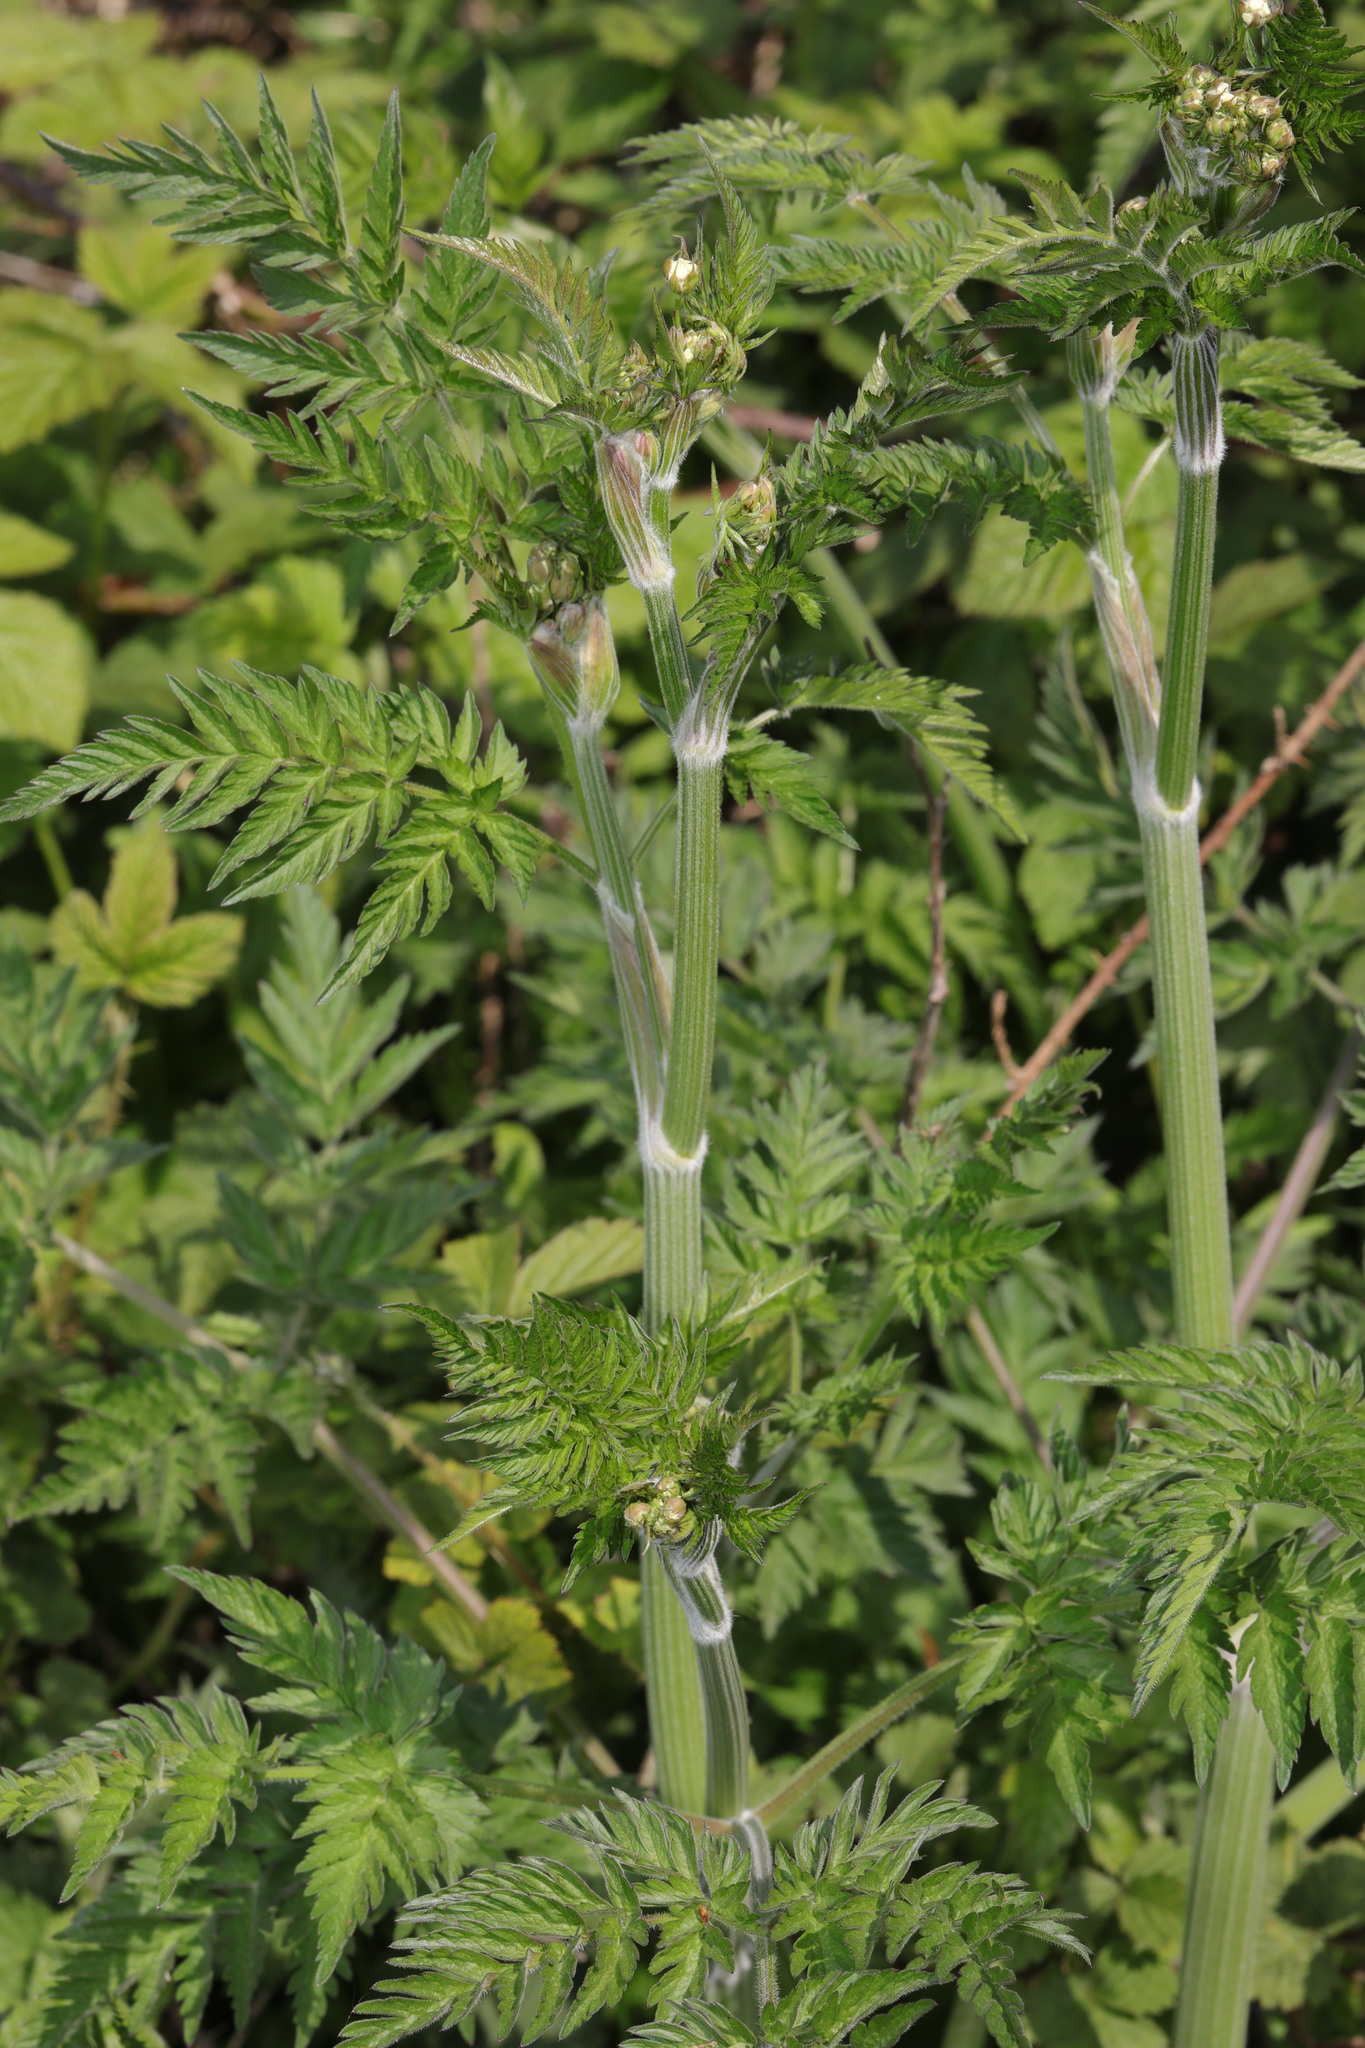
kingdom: Plantae
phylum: Tracheophyta
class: Magnoliopsida
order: Apiales
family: Apiaceae
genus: Anthriscus
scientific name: Anthriscus sylvestris
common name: Cow parsley
